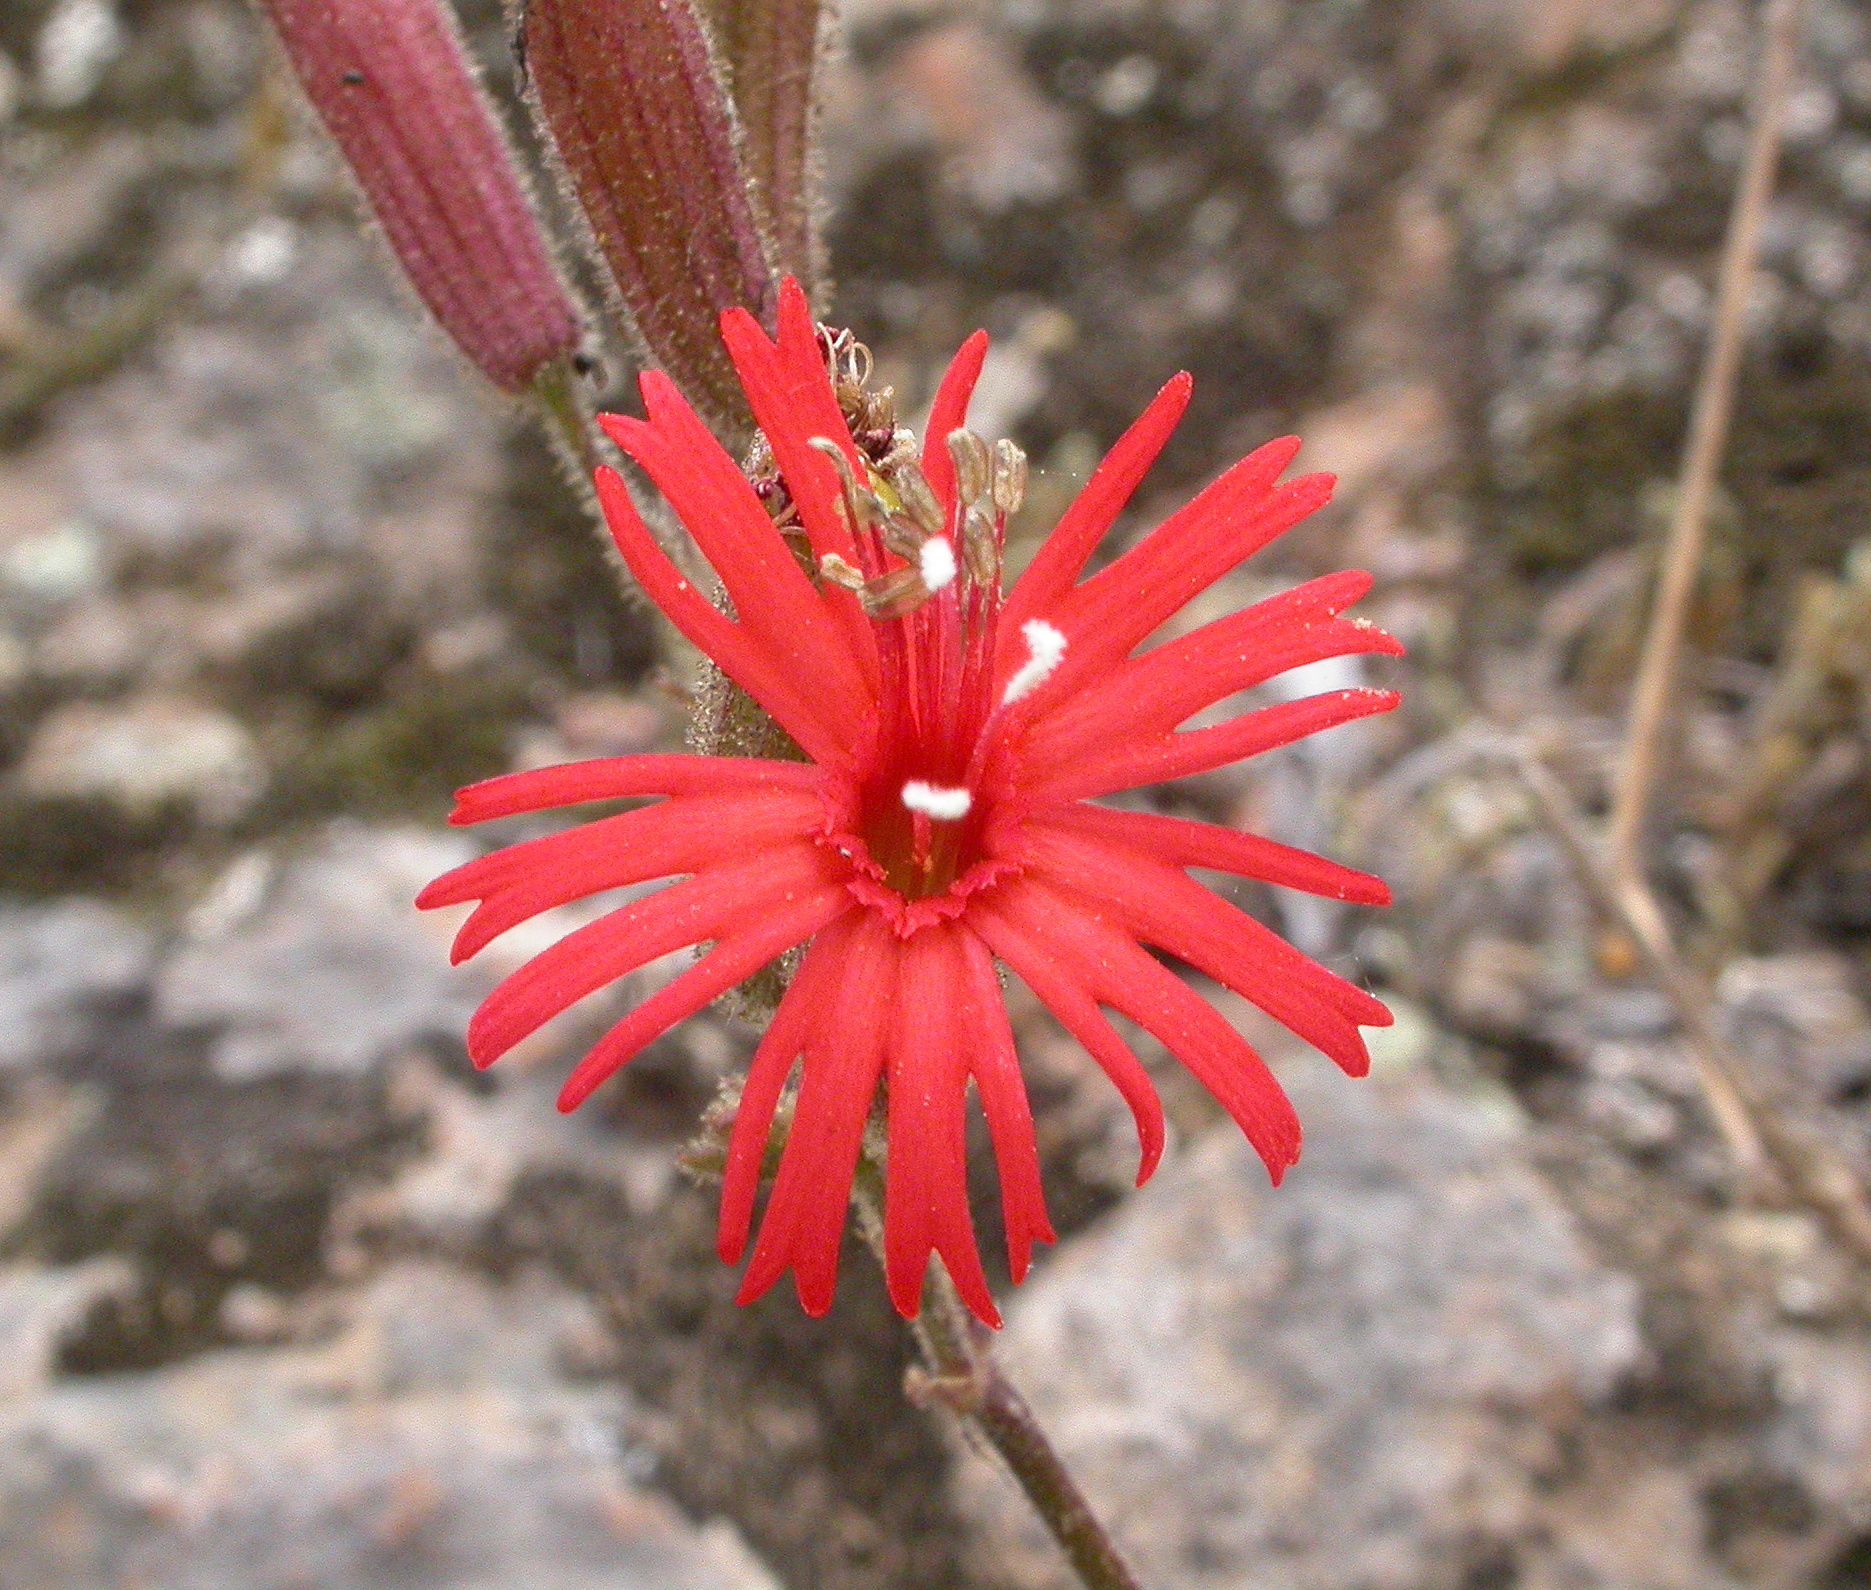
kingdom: Plantae
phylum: Tracheophyta
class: Magnoliopsida
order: Caryophyllales
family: Caryophyllaceae
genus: Silene
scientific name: Silene laciniata
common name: Indian-pink
